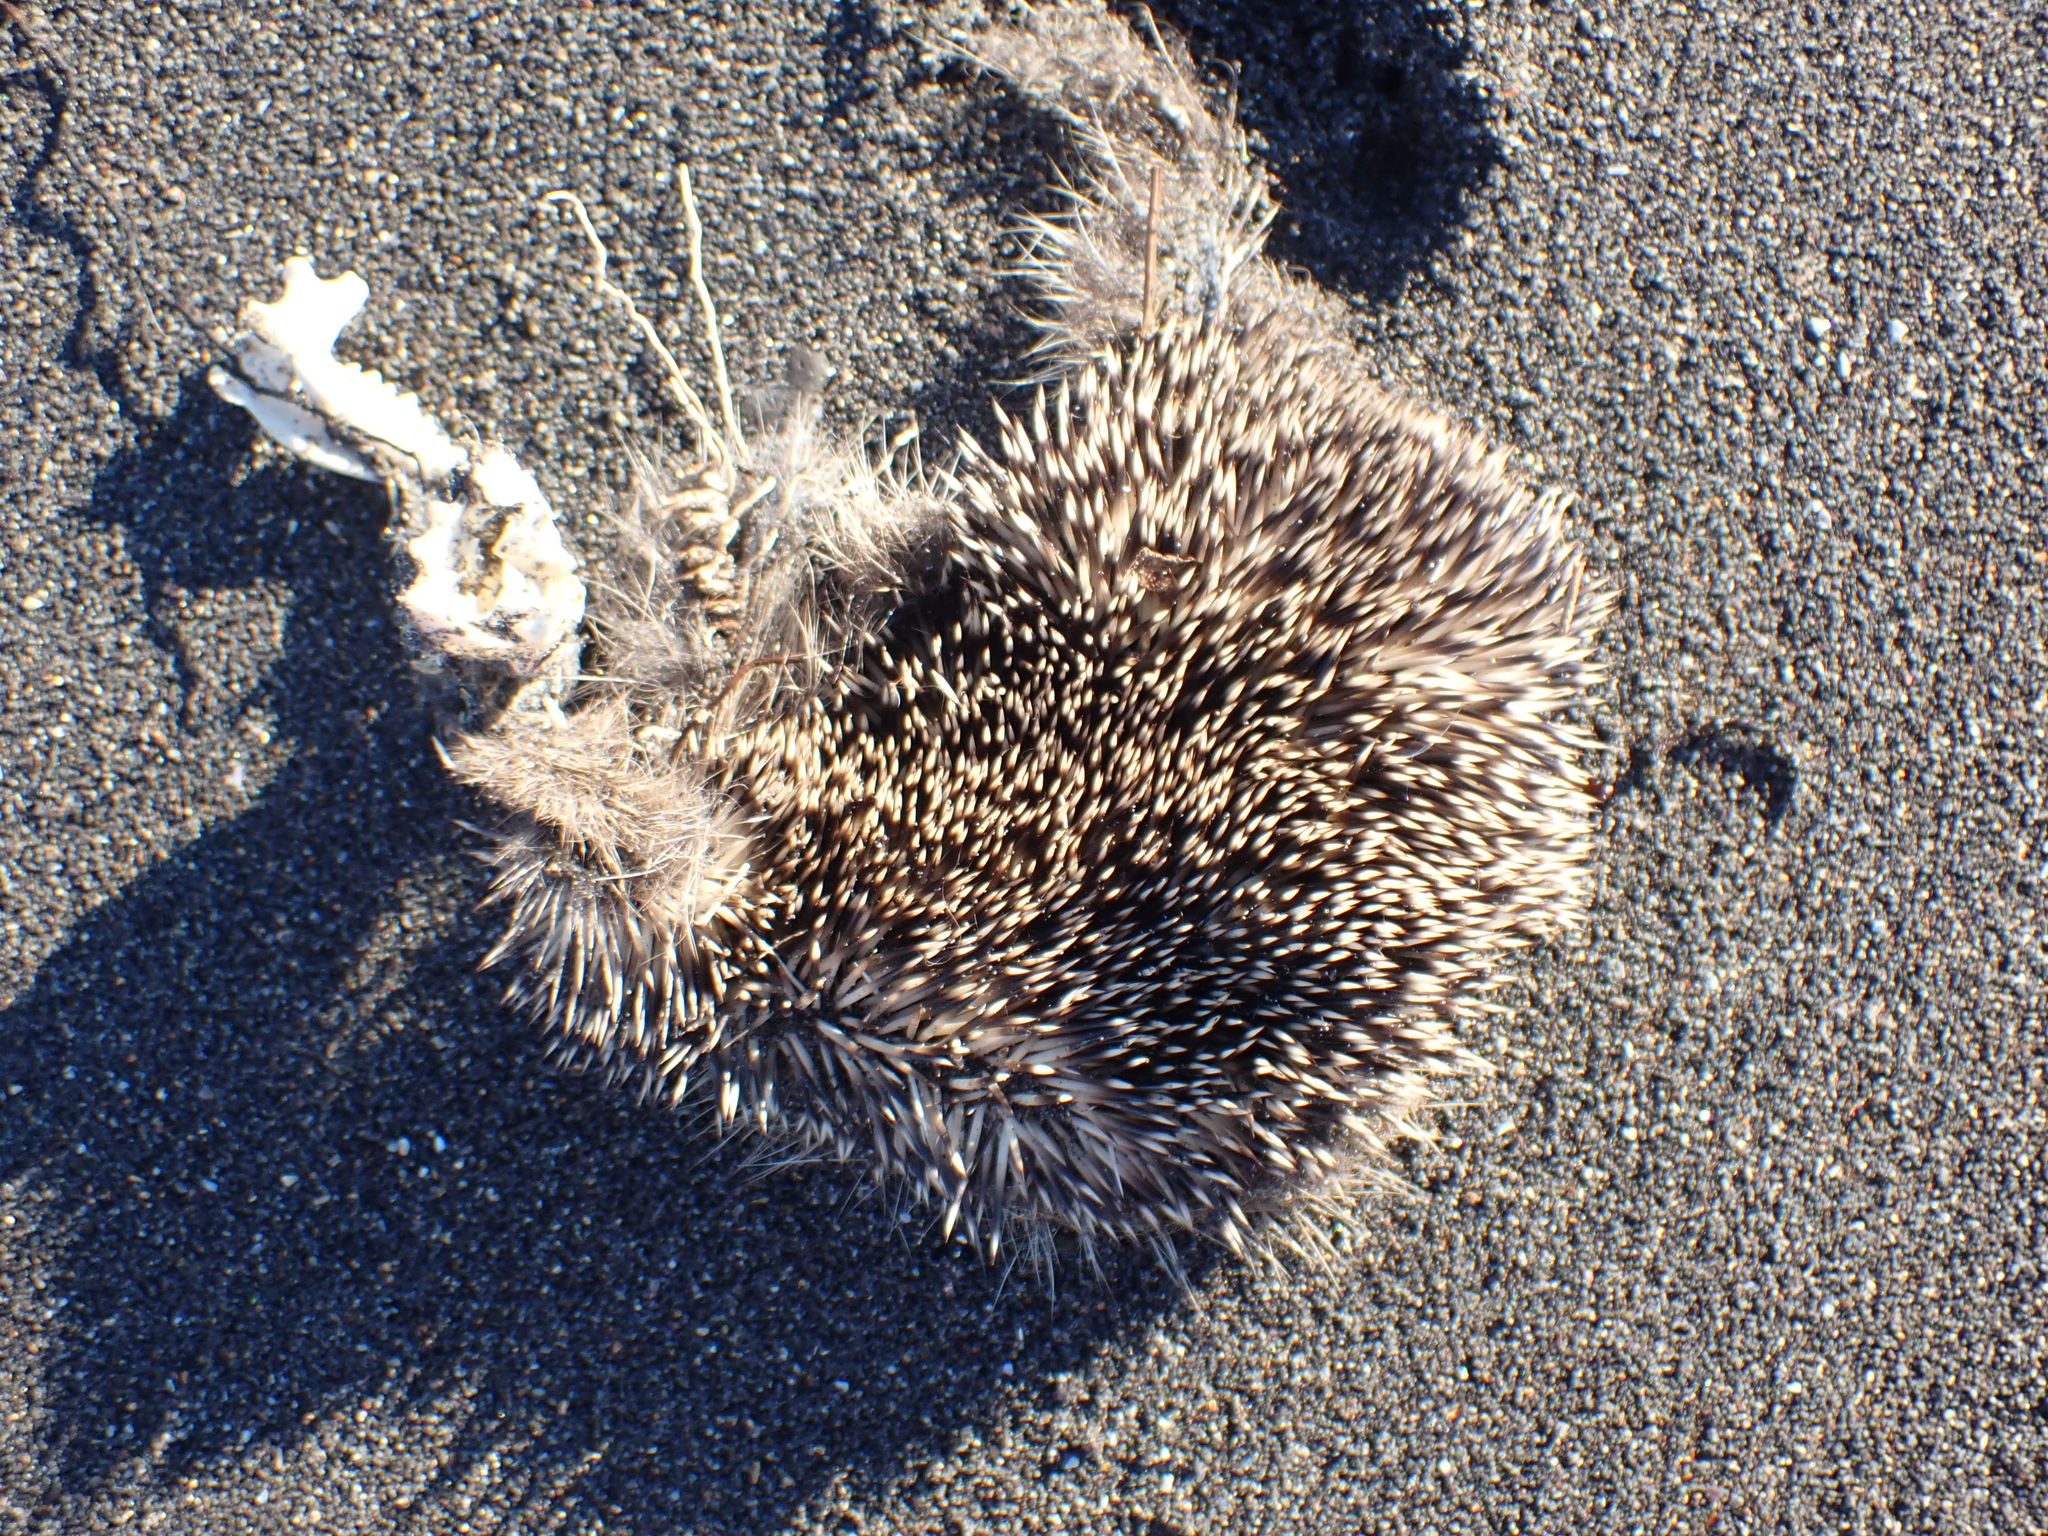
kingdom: Animalia
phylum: Chordata
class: Mammalia
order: Erinaceomorpha
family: Erinaceidae
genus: Erinaceus
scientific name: Erinaceus europaeus
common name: West european hedgehog
